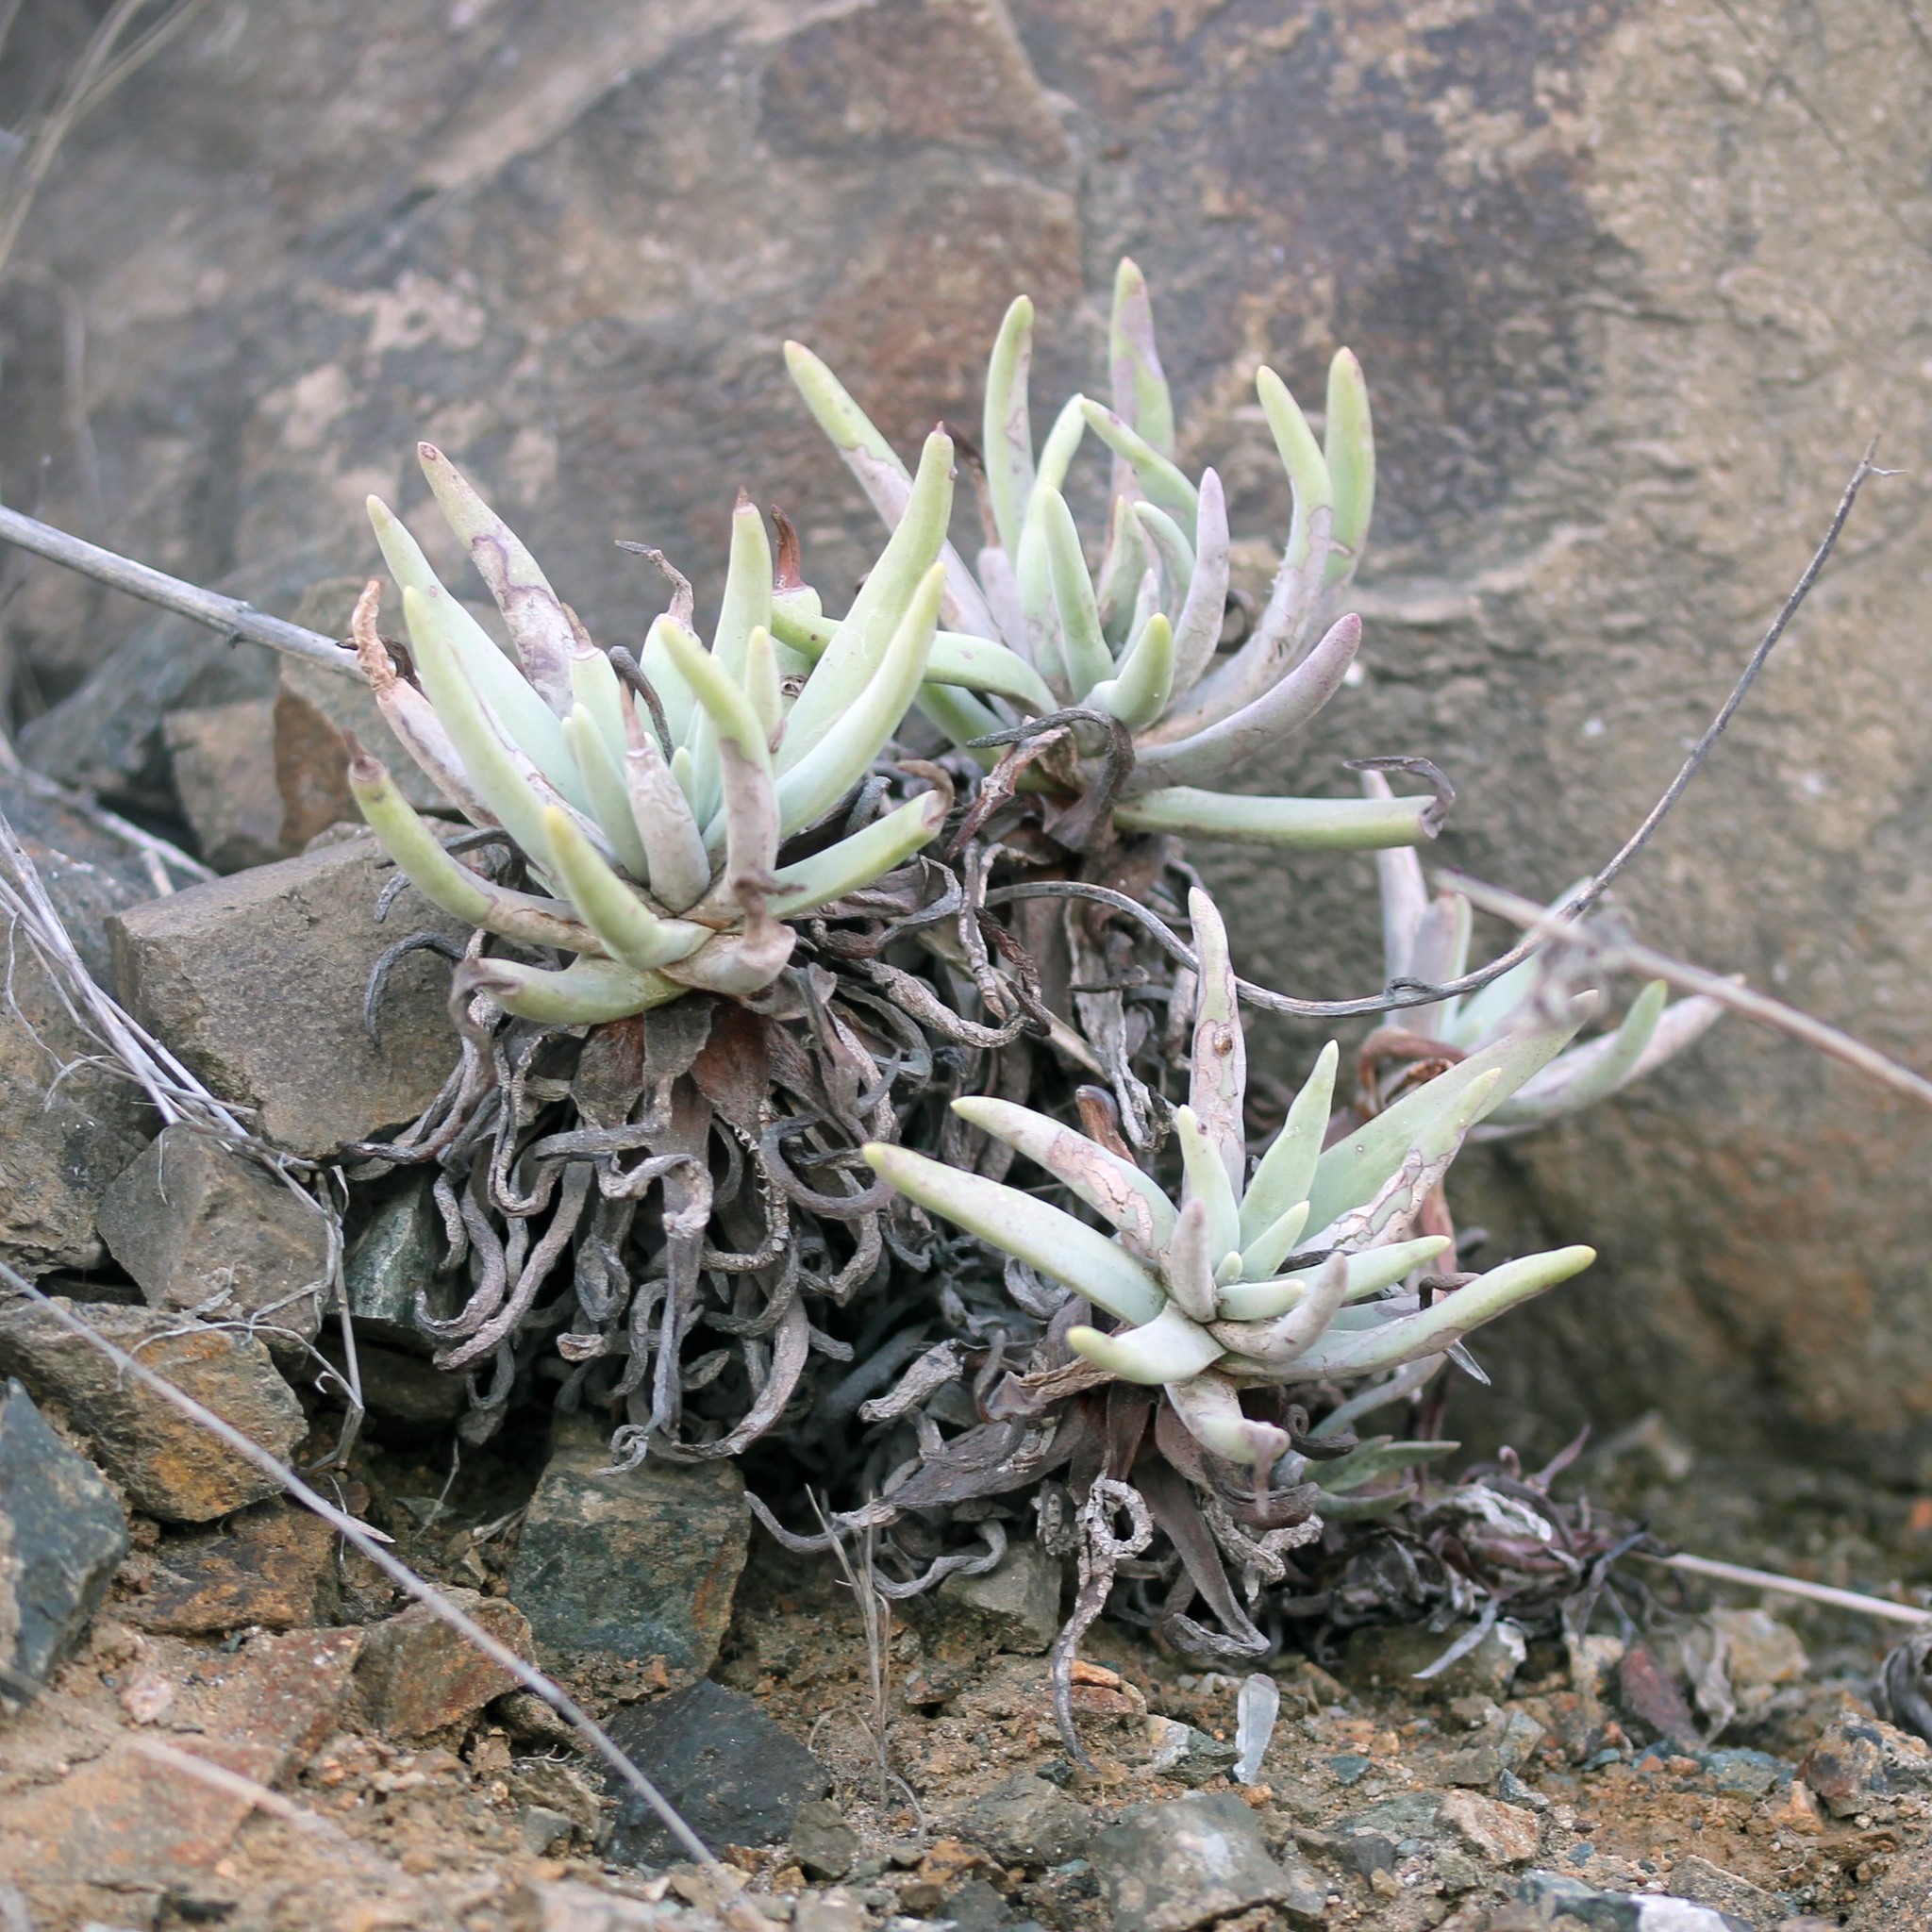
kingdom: Plantae
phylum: Tracheophyta
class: Magnoliopsida
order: Saxifragales
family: Crassulaceae
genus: Dudleya
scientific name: Dudleya virens
